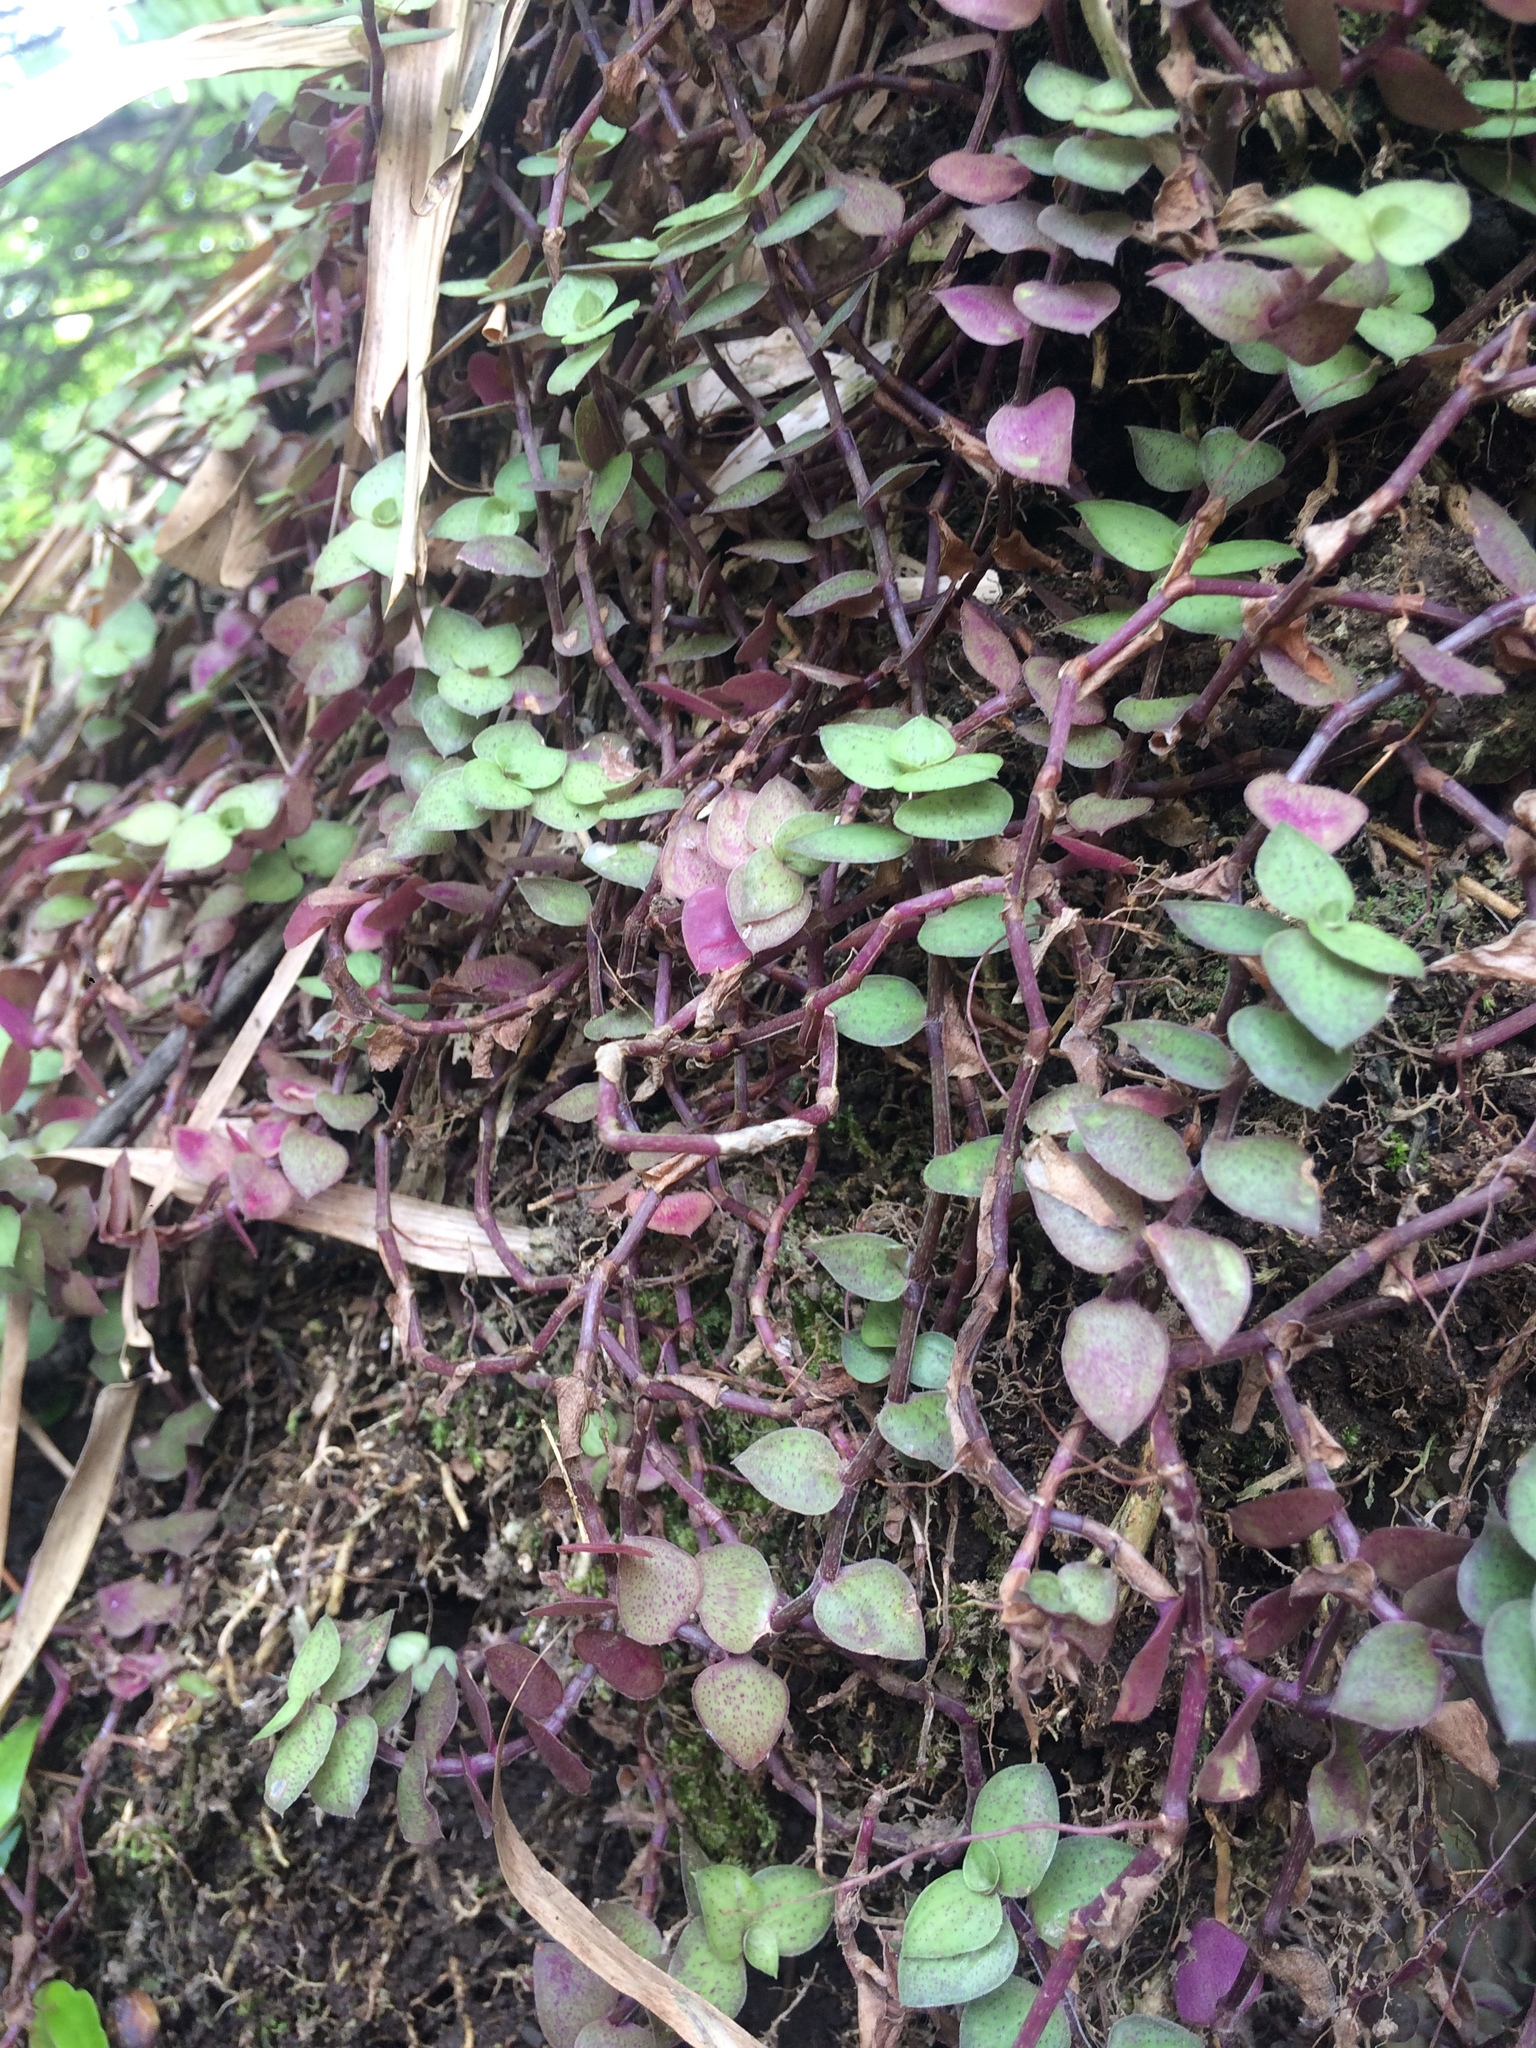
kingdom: Plantae
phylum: Tracheophyta
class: Liliopsida
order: Commelinales
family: Commelinaceae
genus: Callisia
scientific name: Callisia repens
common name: Creeping inchplant
